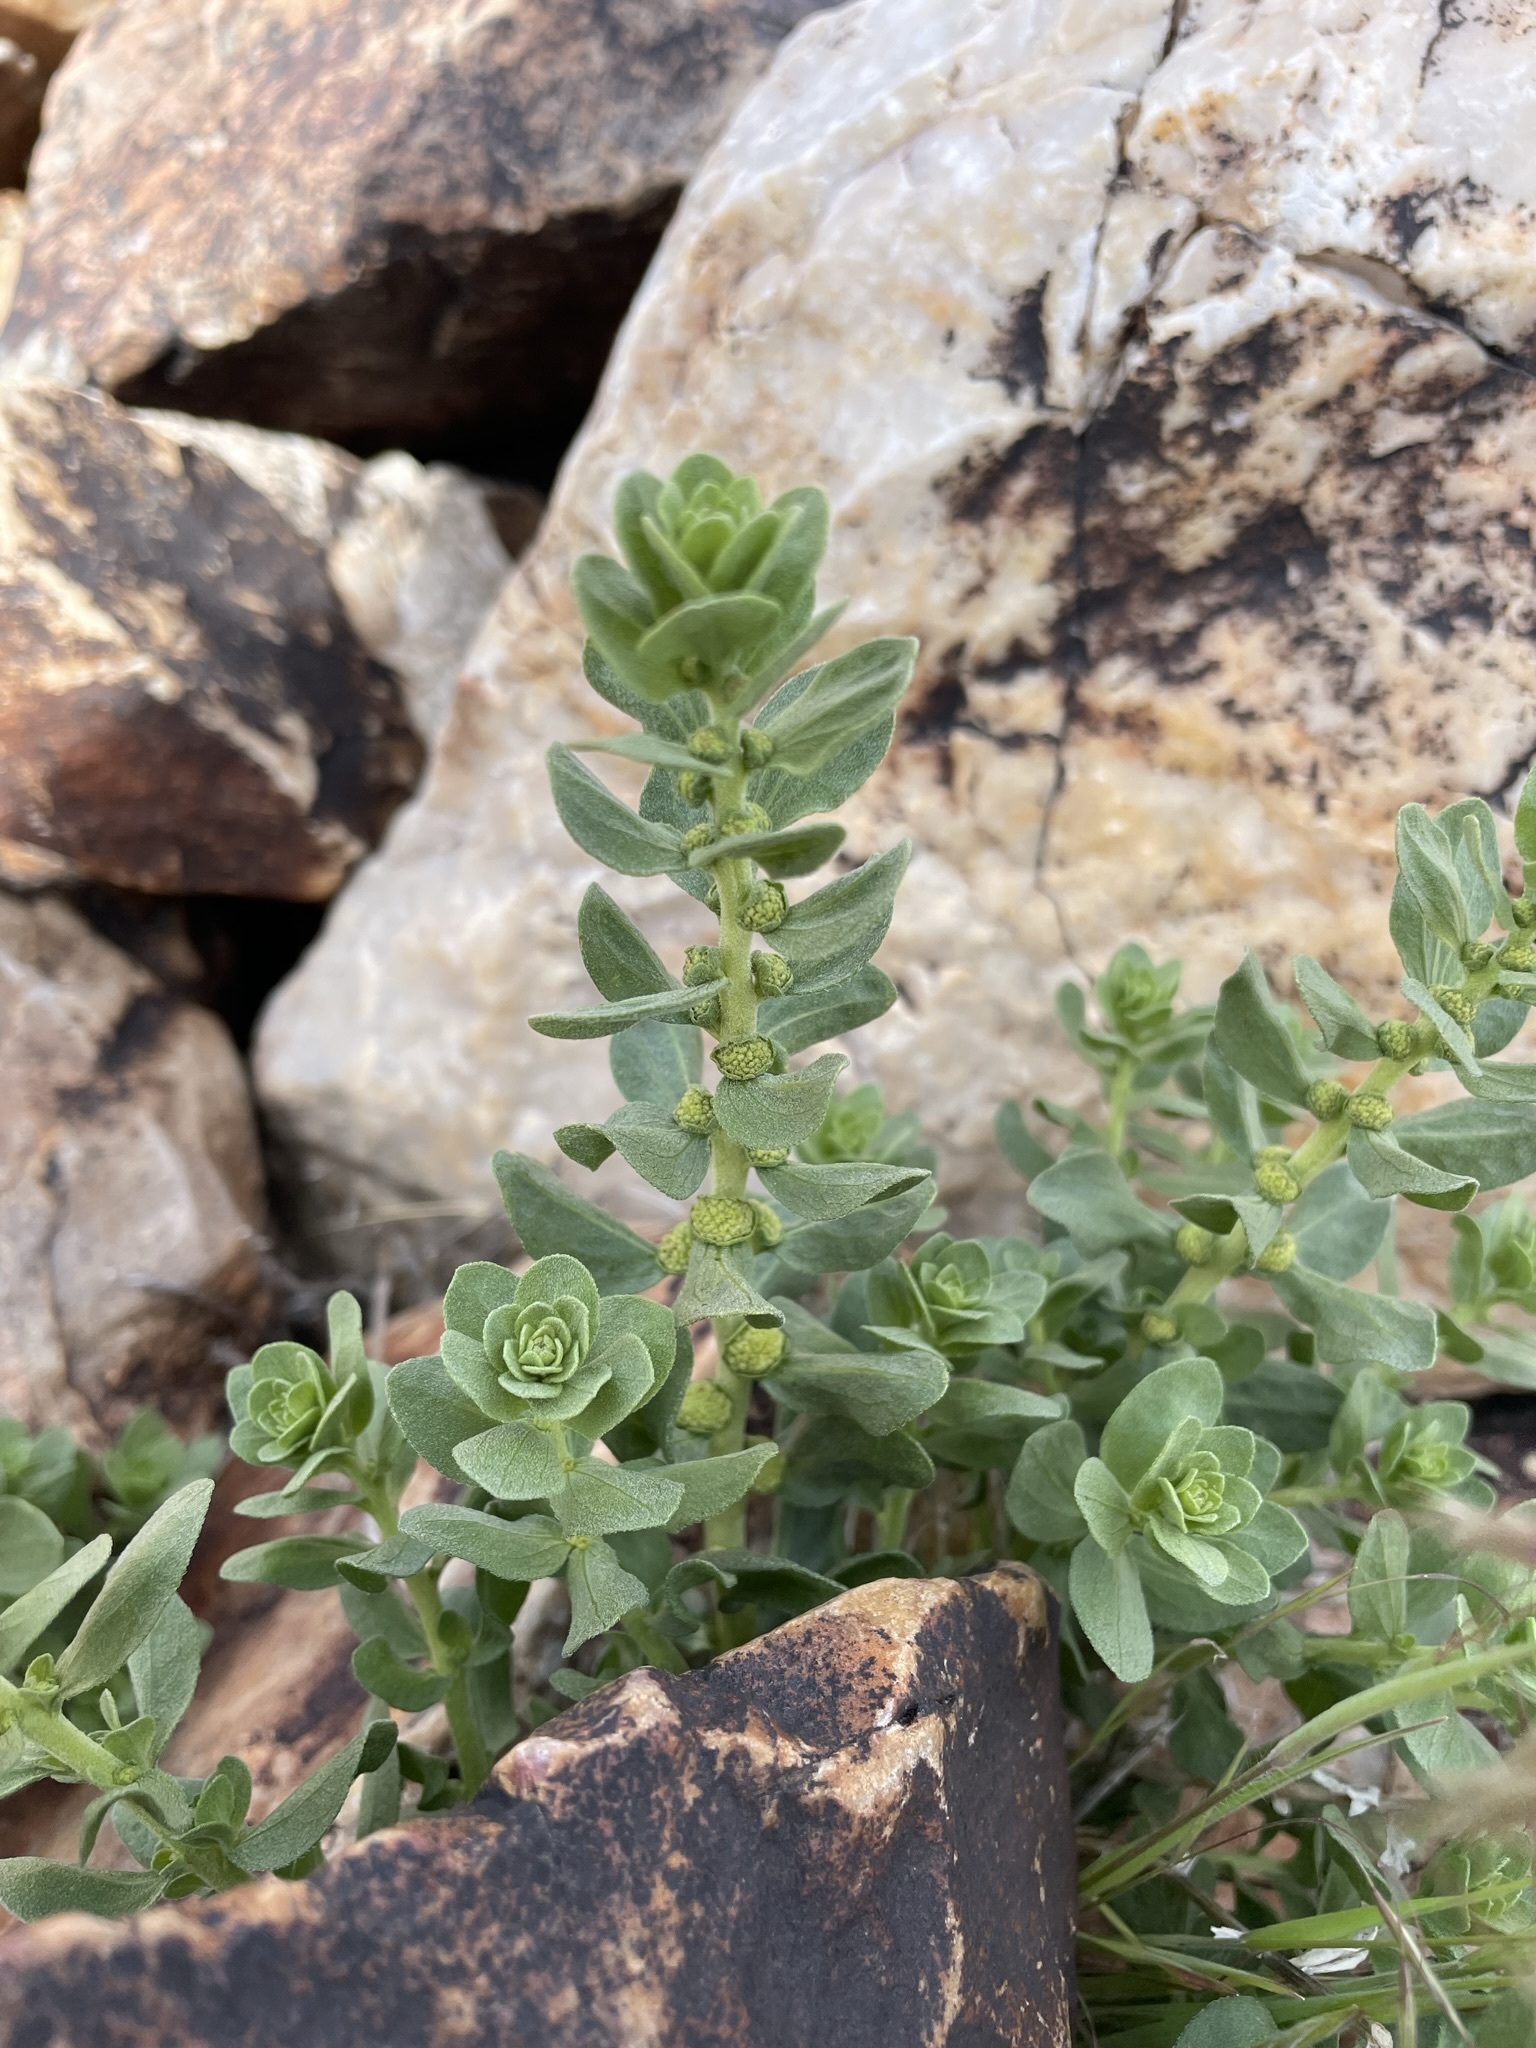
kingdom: Plantae
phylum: Tracheophyta
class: Magnoliopsida
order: Asterales
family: Asteraceae
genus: Iva
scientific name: Iva axillaris
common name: Poverty sumpweed
